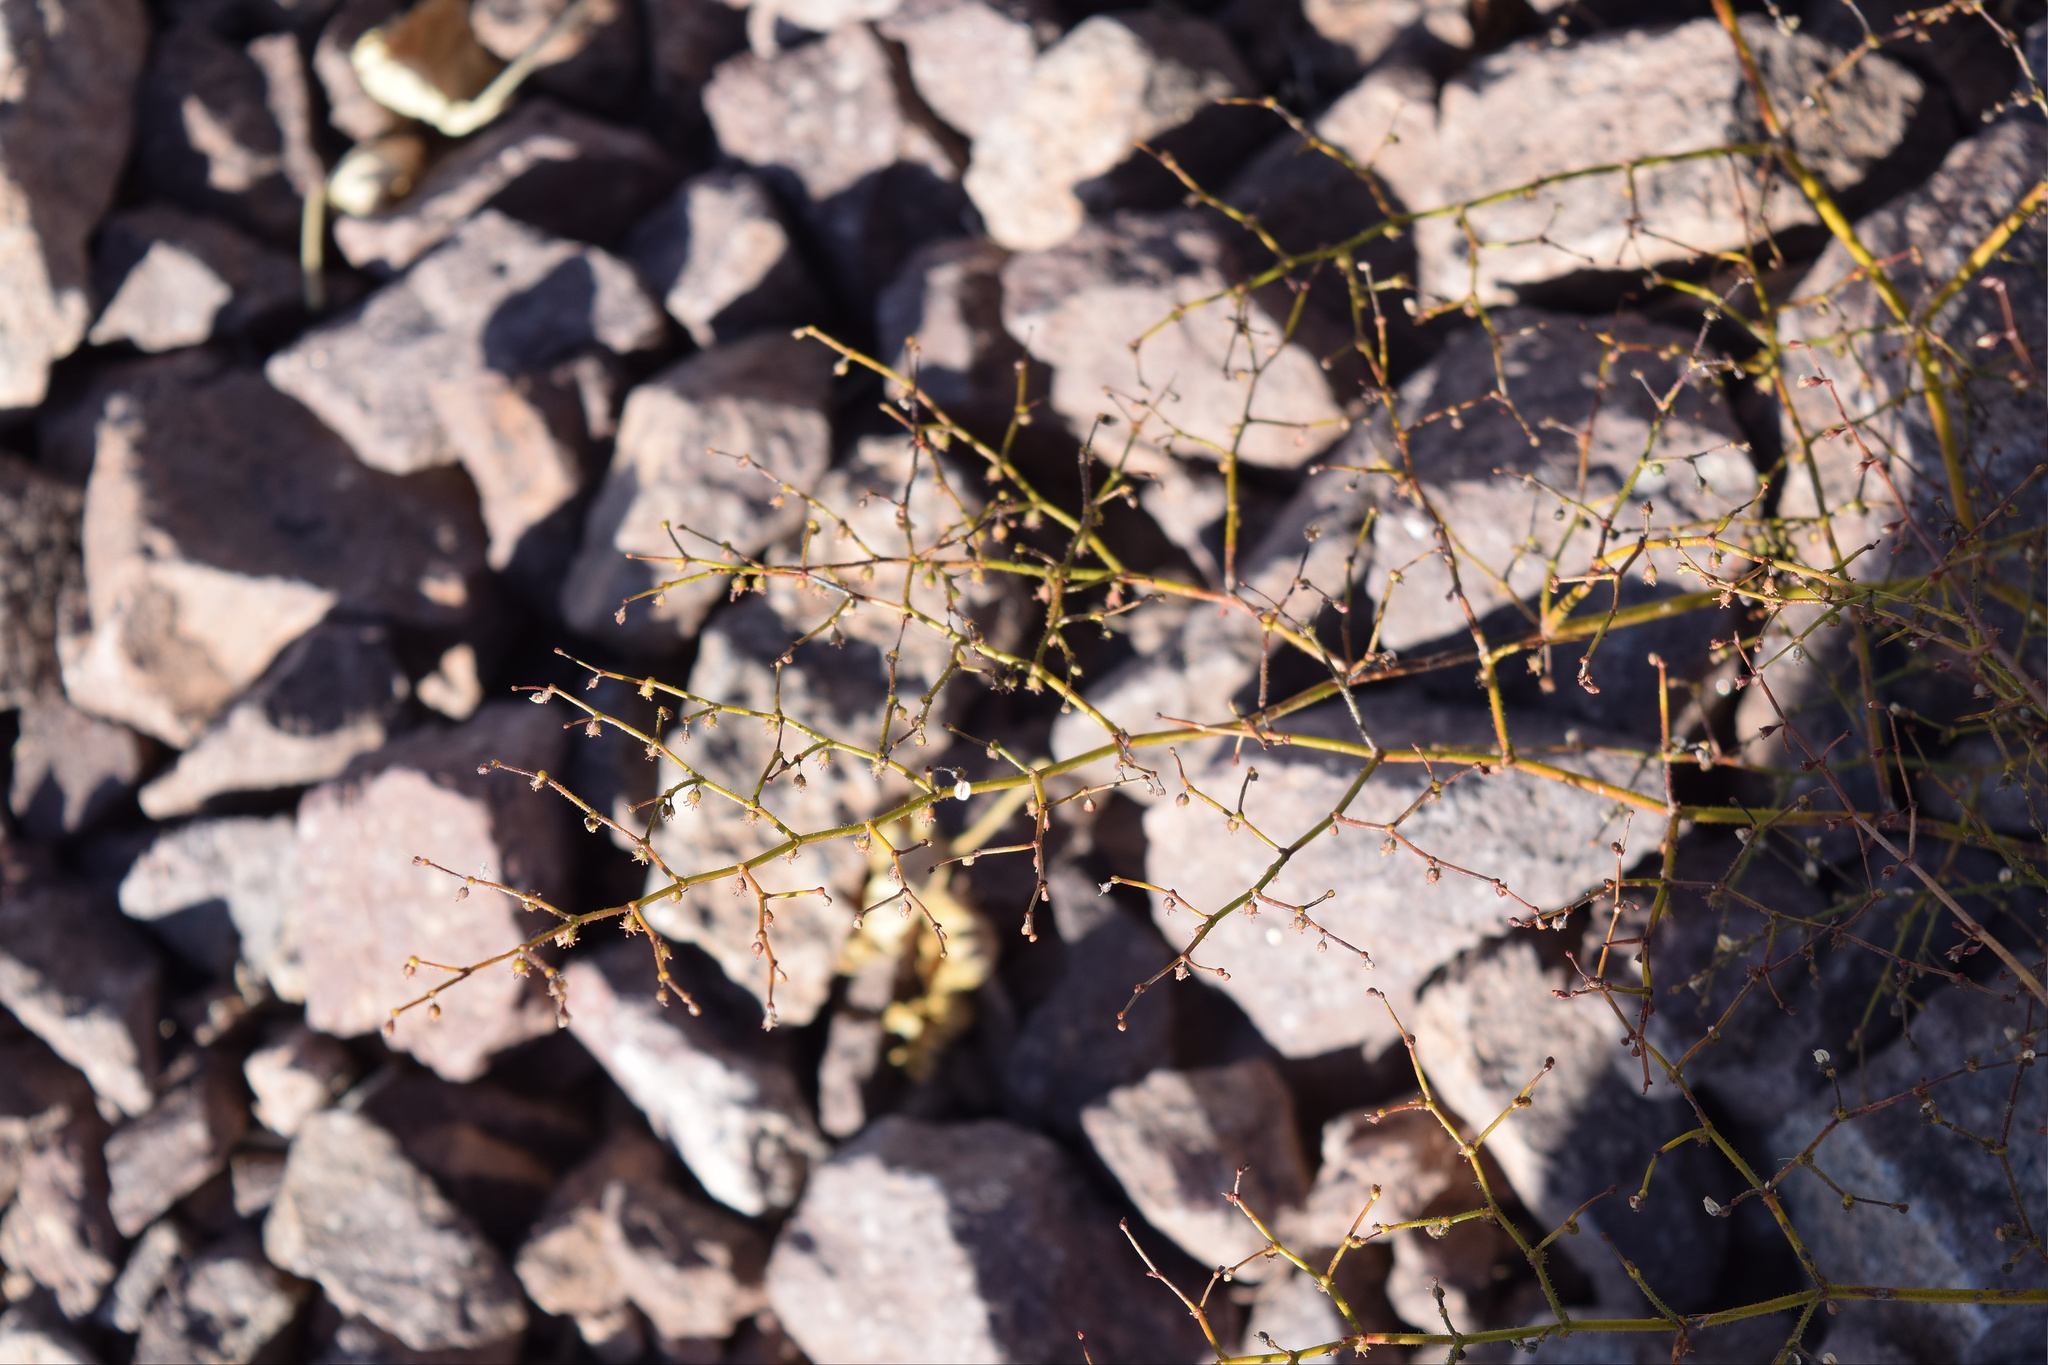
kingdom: Plantae
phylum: Tracheophyta
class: Magnoliopsida
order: Caryophyllales
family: Polygonaceae
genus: Eriogonum
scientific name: Eriogonum brachypodum
